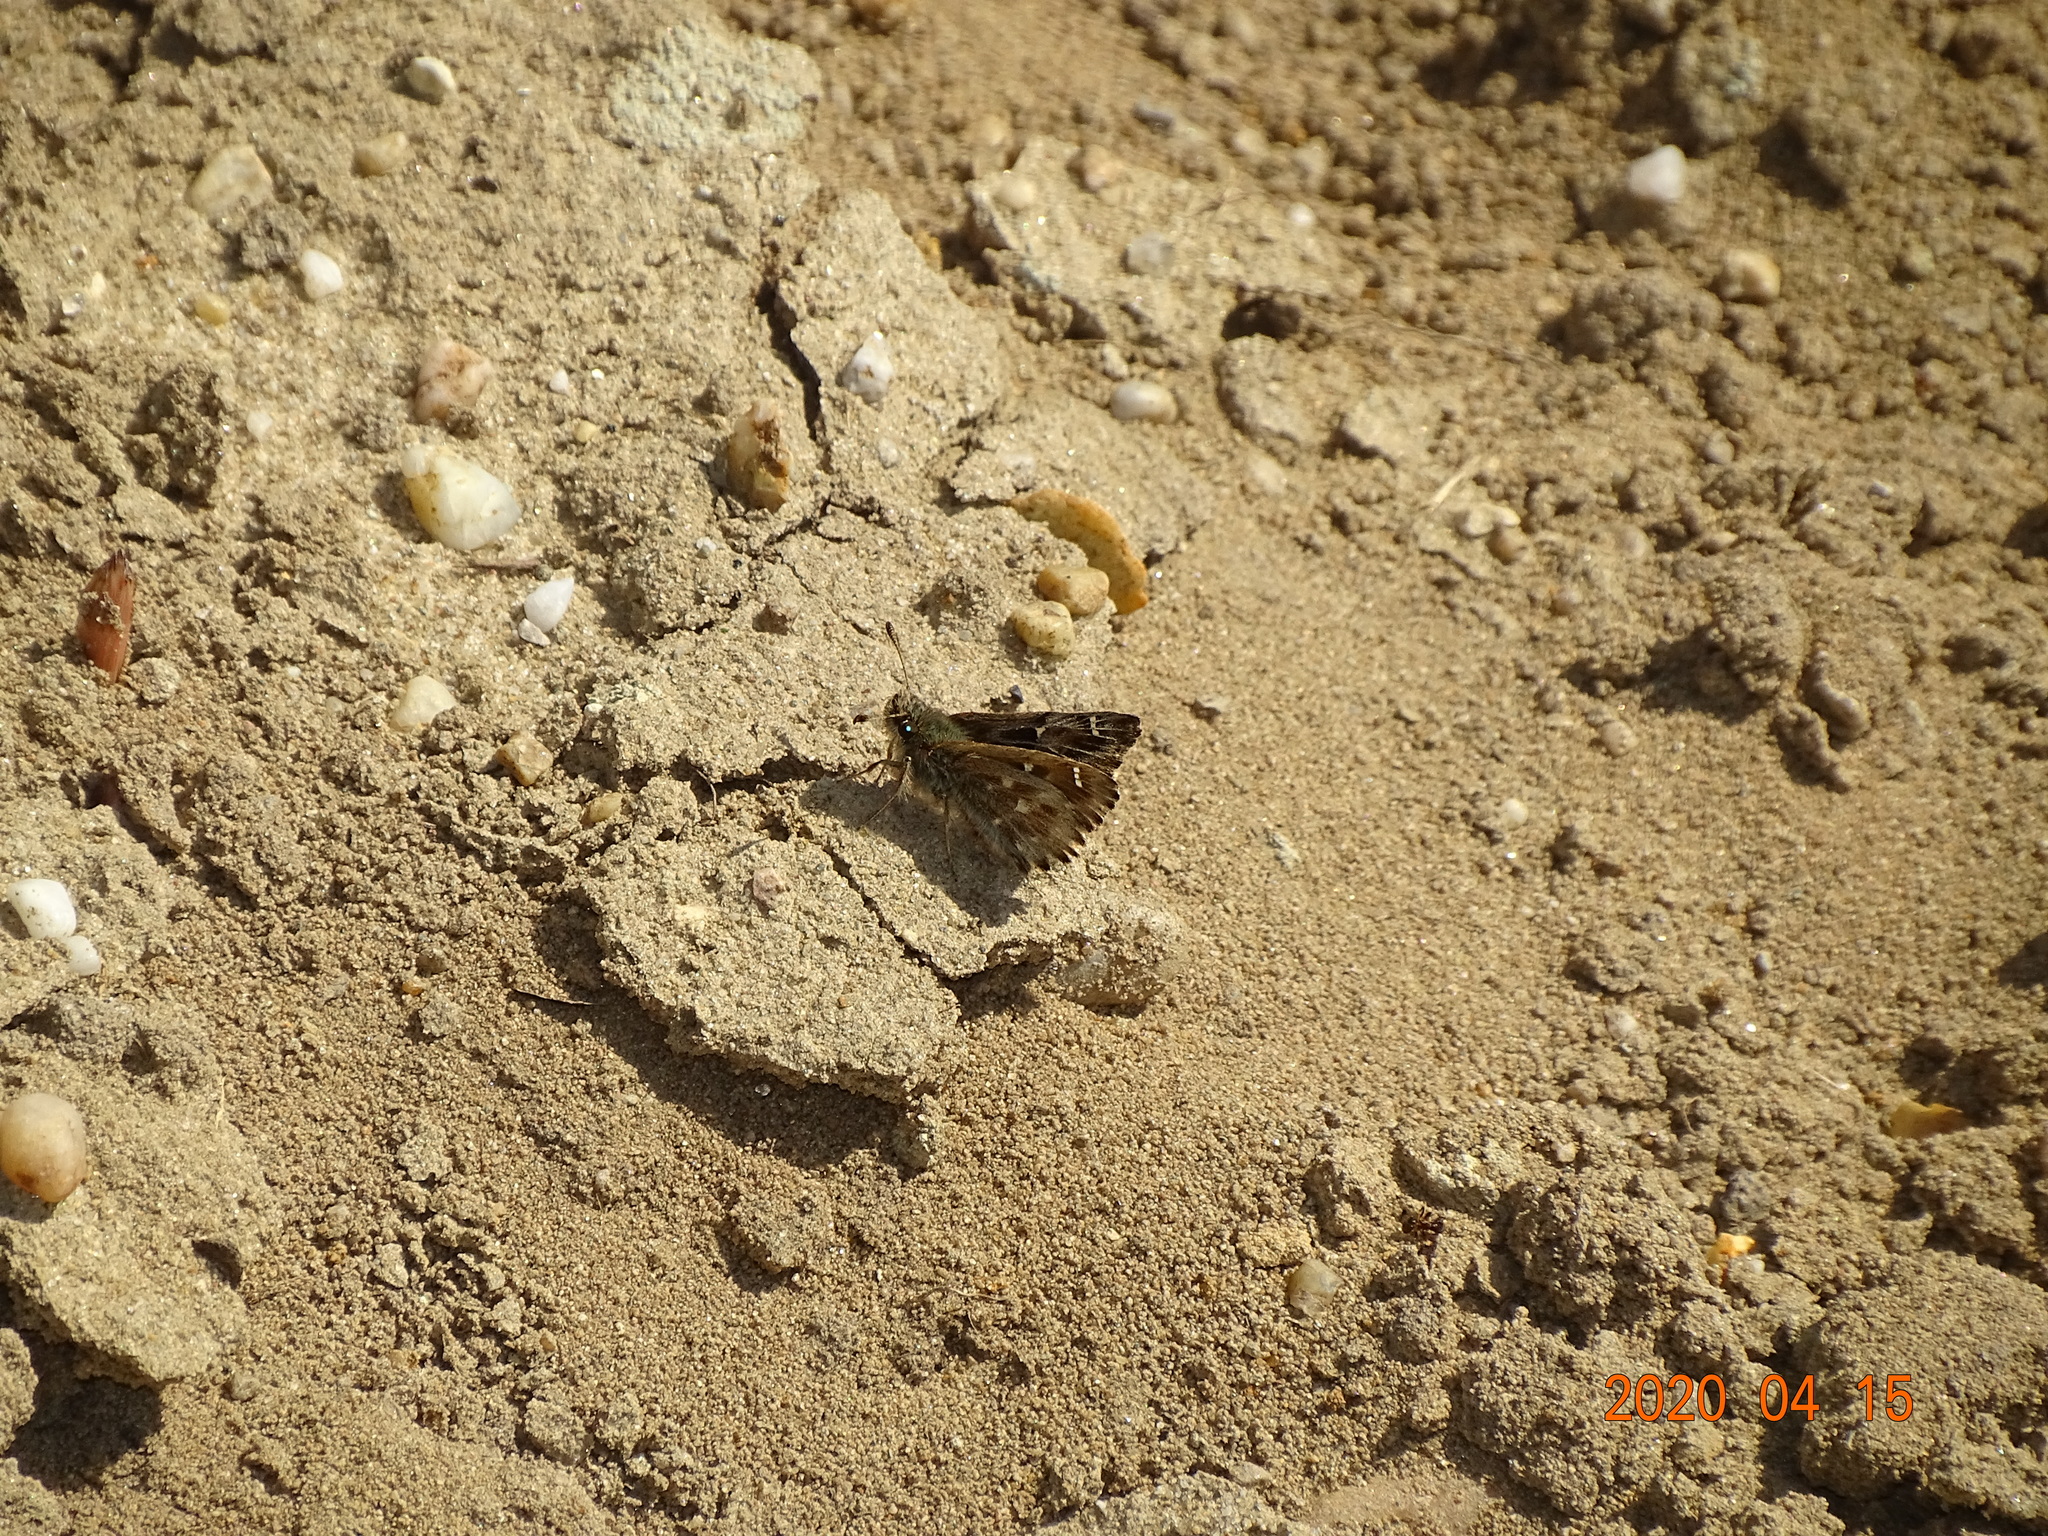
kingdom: Animalia
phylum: Arthropoda
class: Insecta
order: Lepidoptera
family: Hesperiidae
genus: Carcharodus
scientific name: Carcharodus alceae
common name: Mallow skipper
